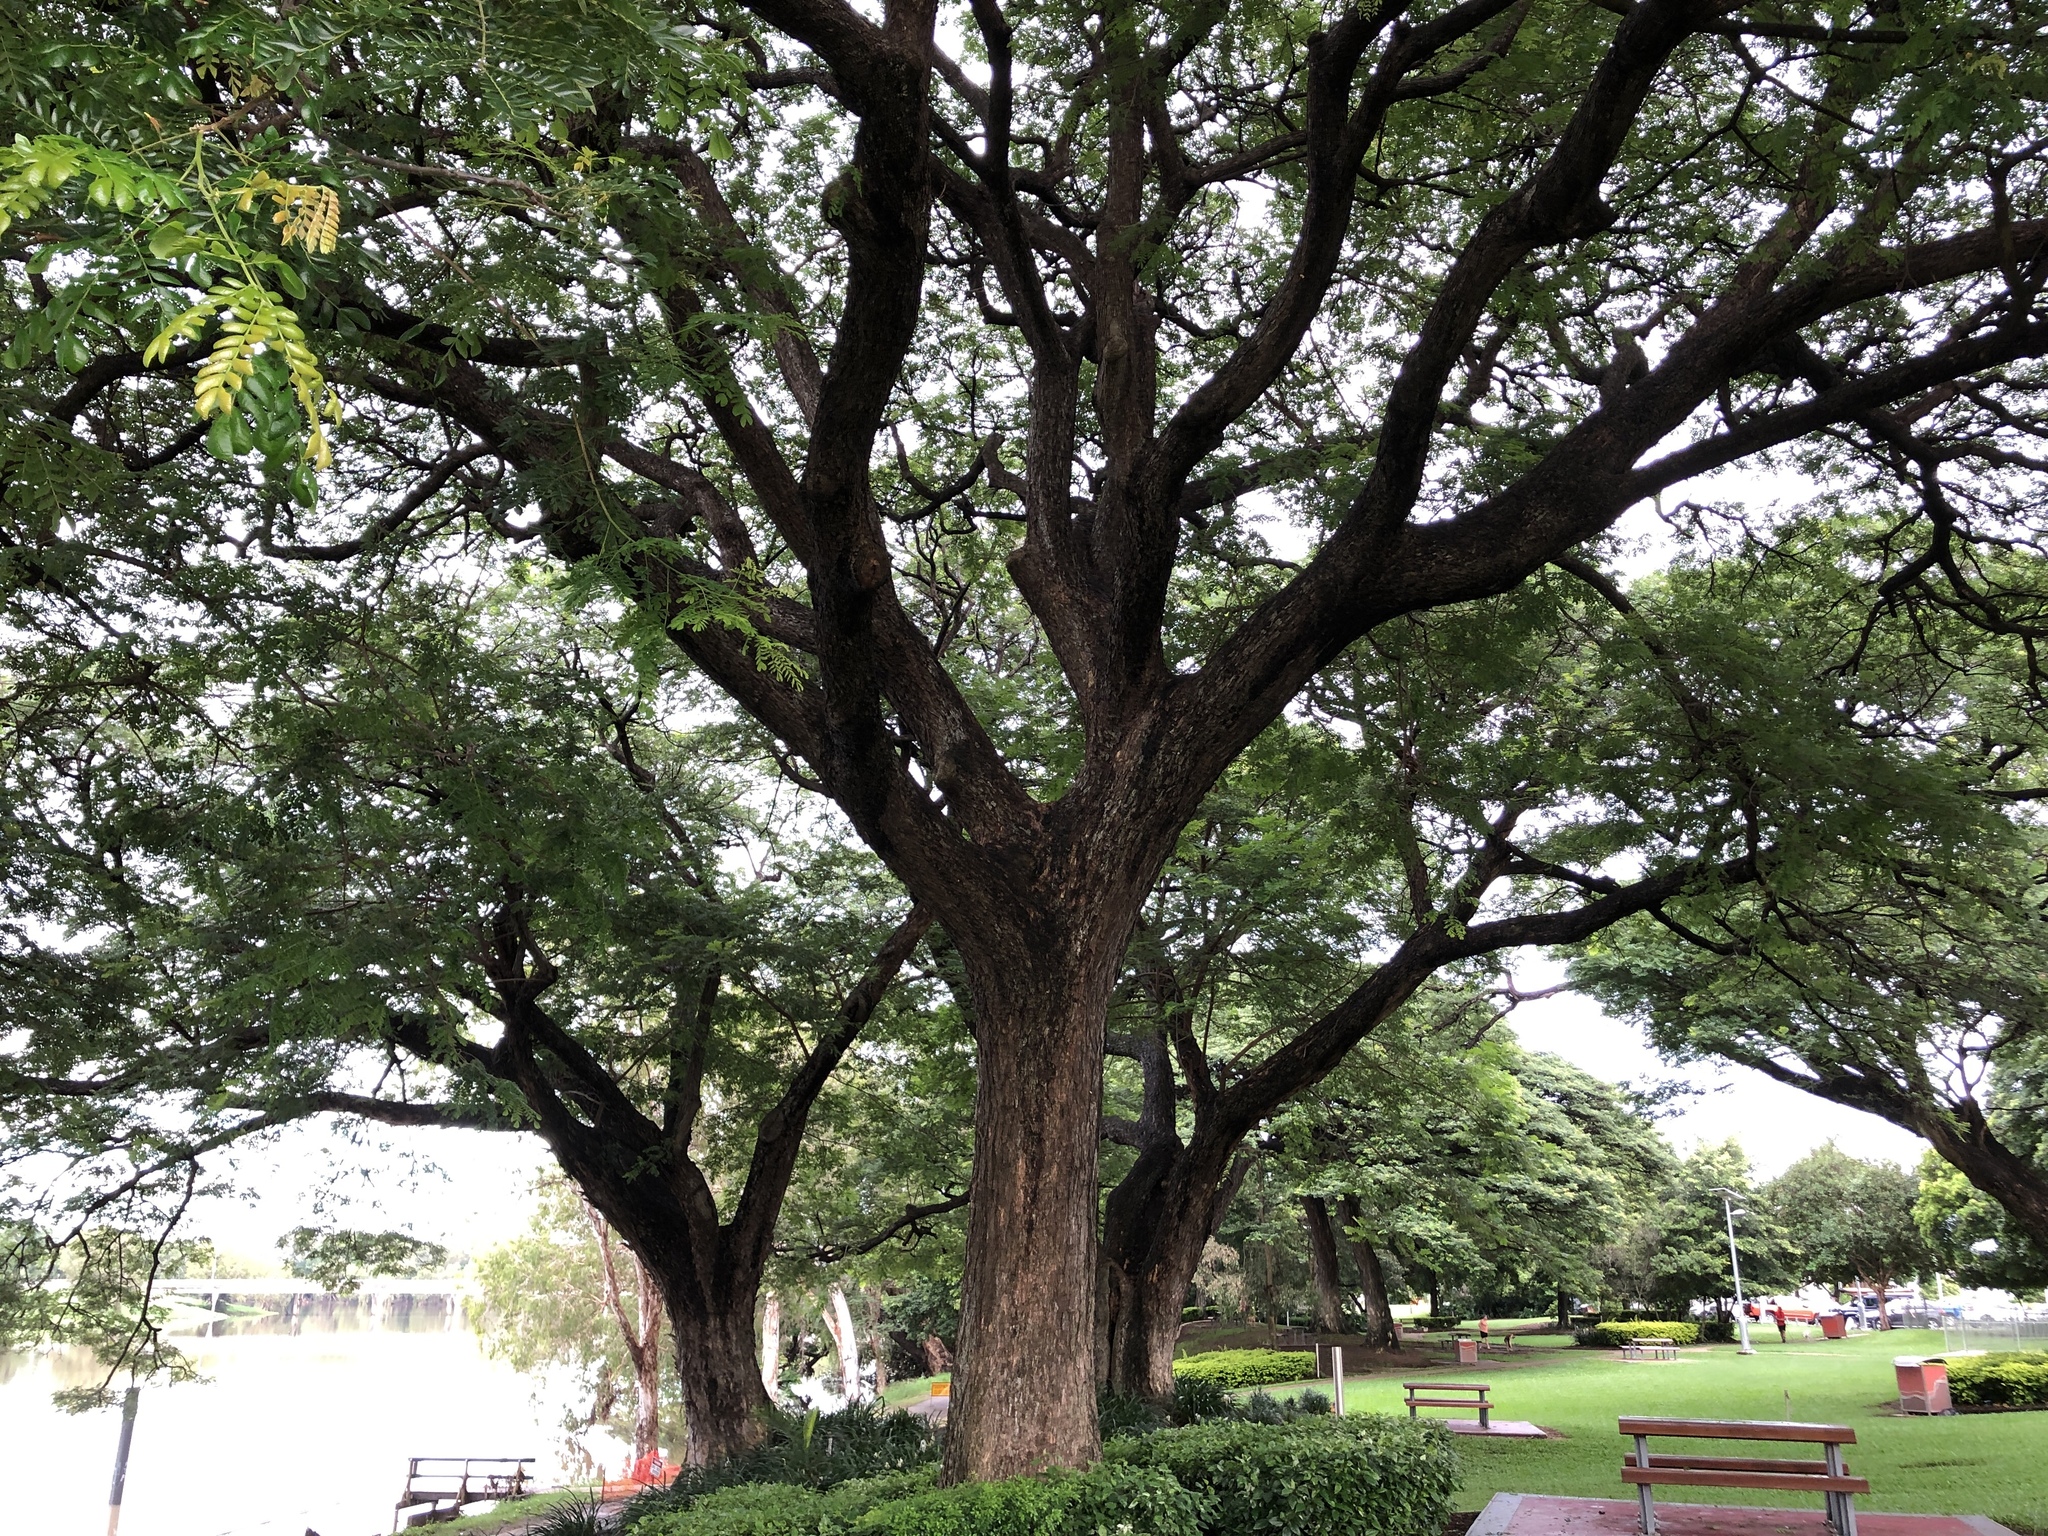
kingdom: Plantae
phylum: Tracheophyta
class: Magnoliopsida
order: Fabales
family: Fabaceae
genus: Samanea
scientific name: Samanea saman
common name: Raintree
